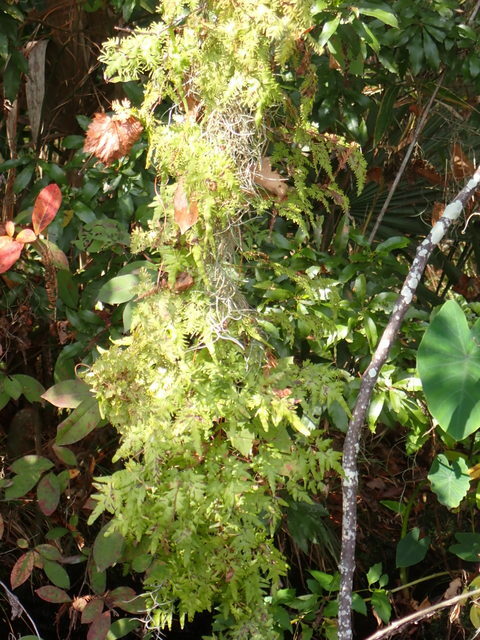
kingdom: Plantae
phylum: Tracheophyta
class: Polypodiopsida
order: Schizaeales
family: Lygodiaceae
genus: Lygodium
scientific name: Lygodium japonicum
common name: Japanese climbing fern
